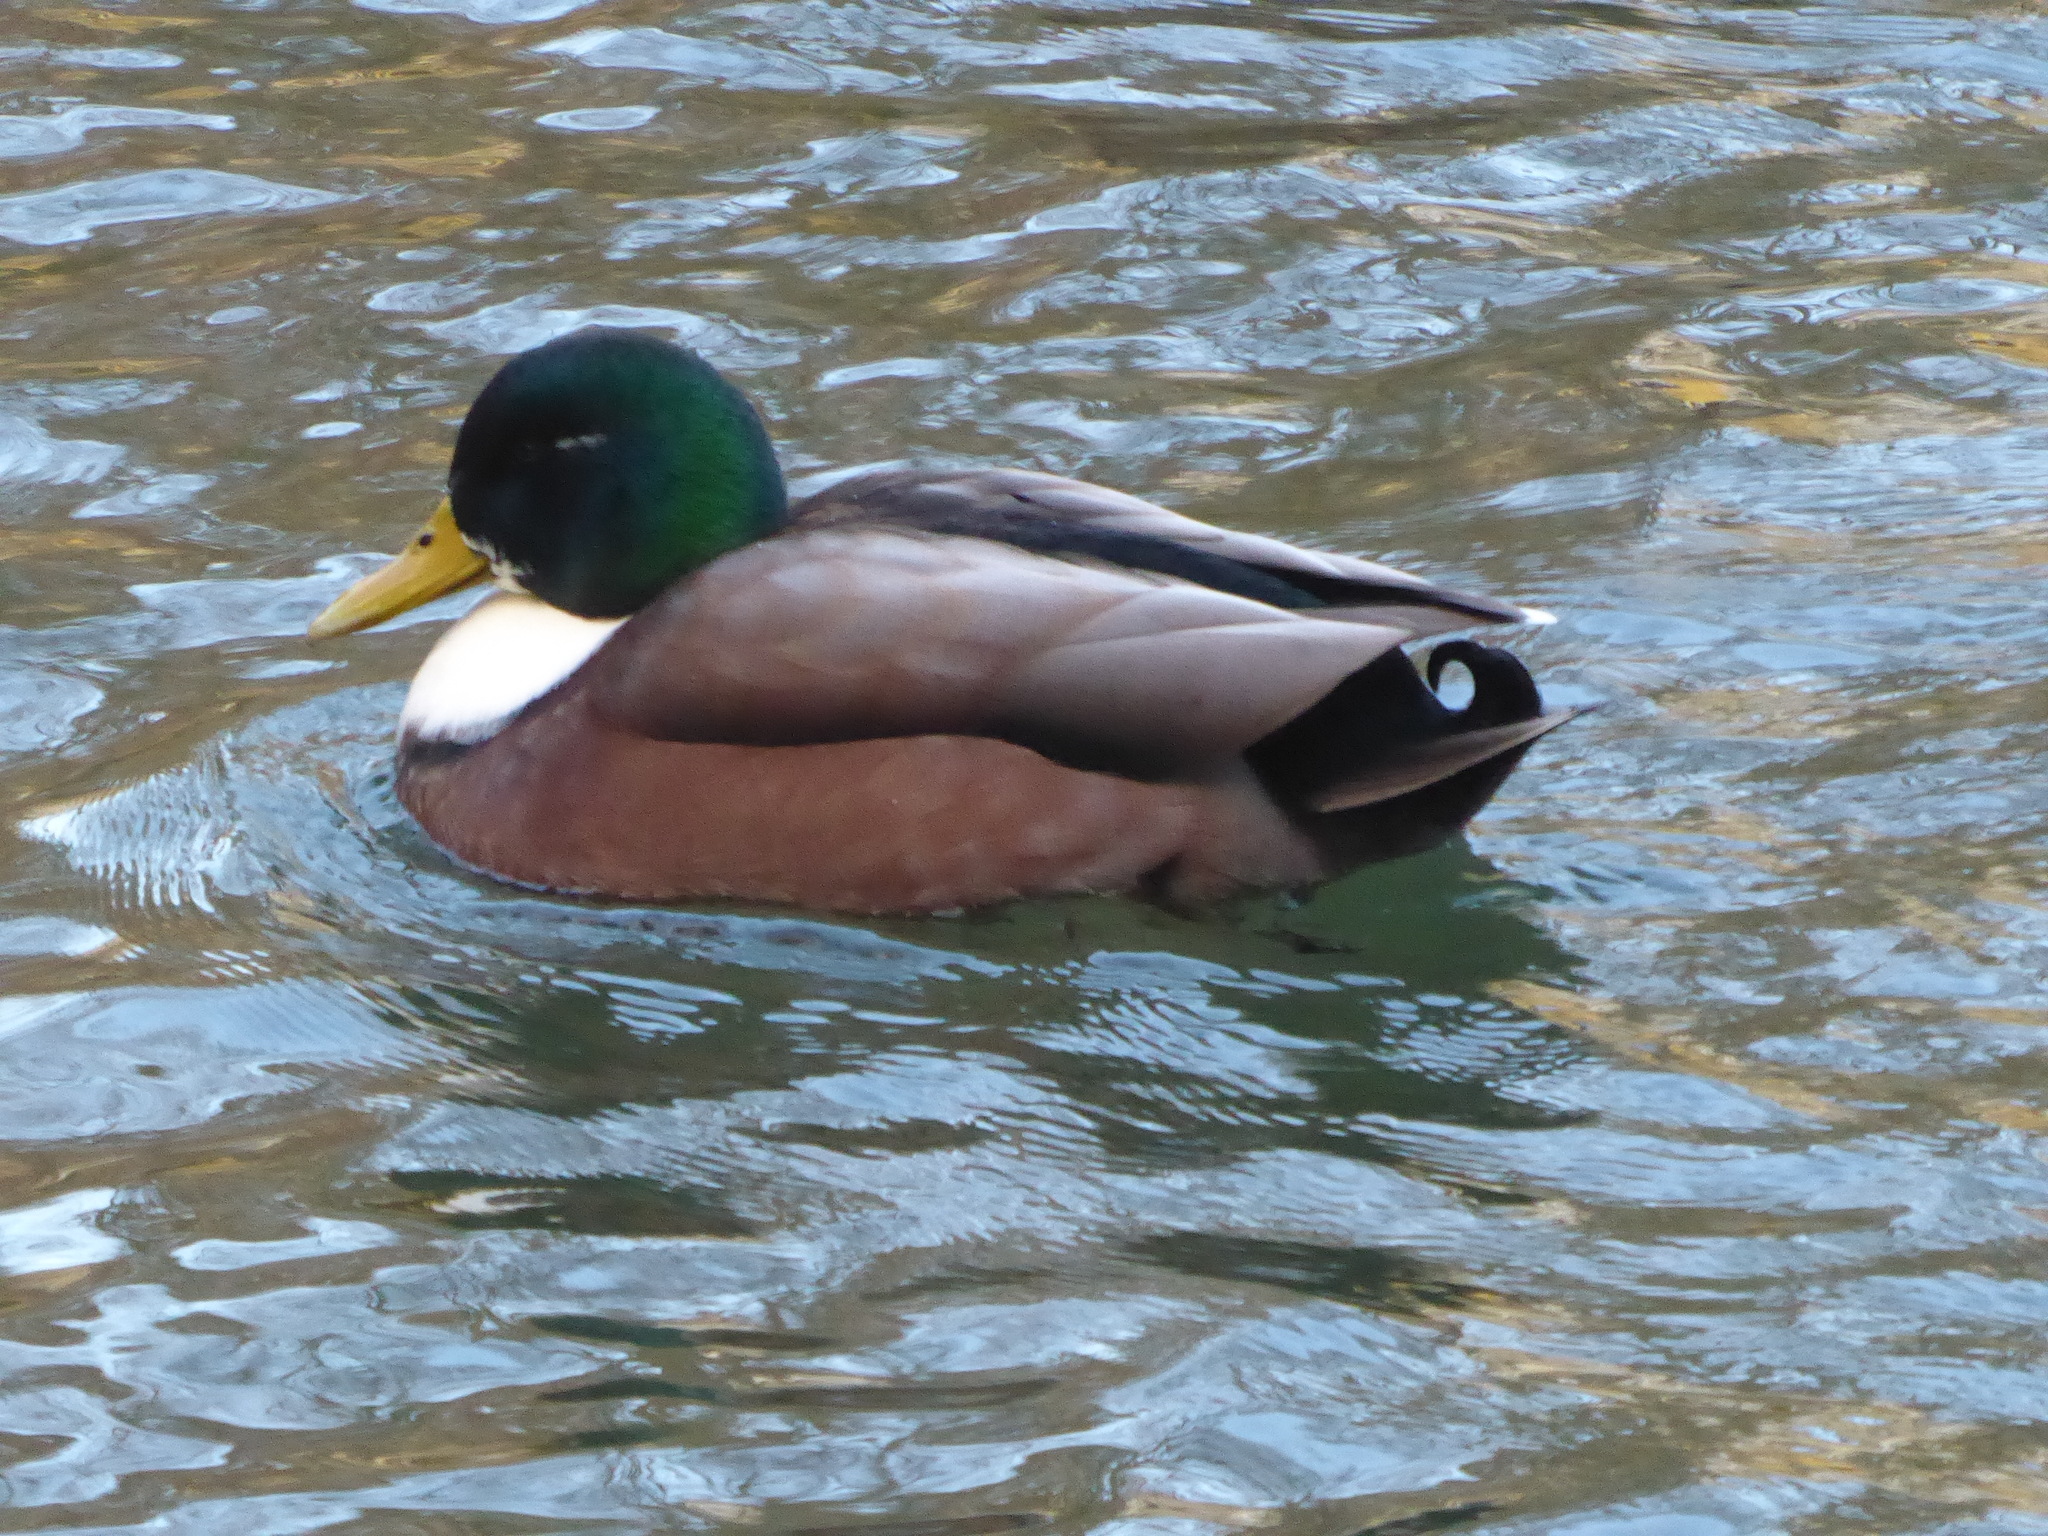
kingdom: Animalia
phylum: Chordata
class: Aves
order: Anseriformes
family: Anatidae
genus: Anas
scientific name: Anas platyrhynchos
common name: Mallard
